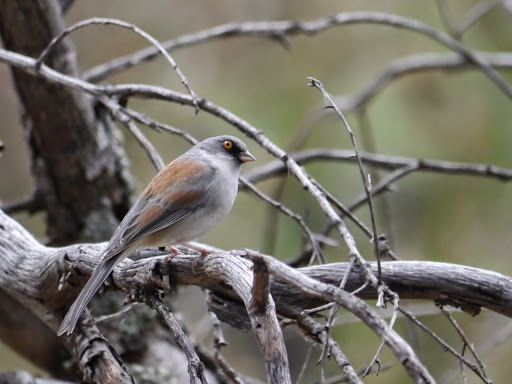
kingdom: Animalia
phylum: Chordata
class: Aves
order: Passeriformes
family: Passerellidae
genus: Junco
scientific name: Junco phaeonotus
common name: Yellow-eyed junco
